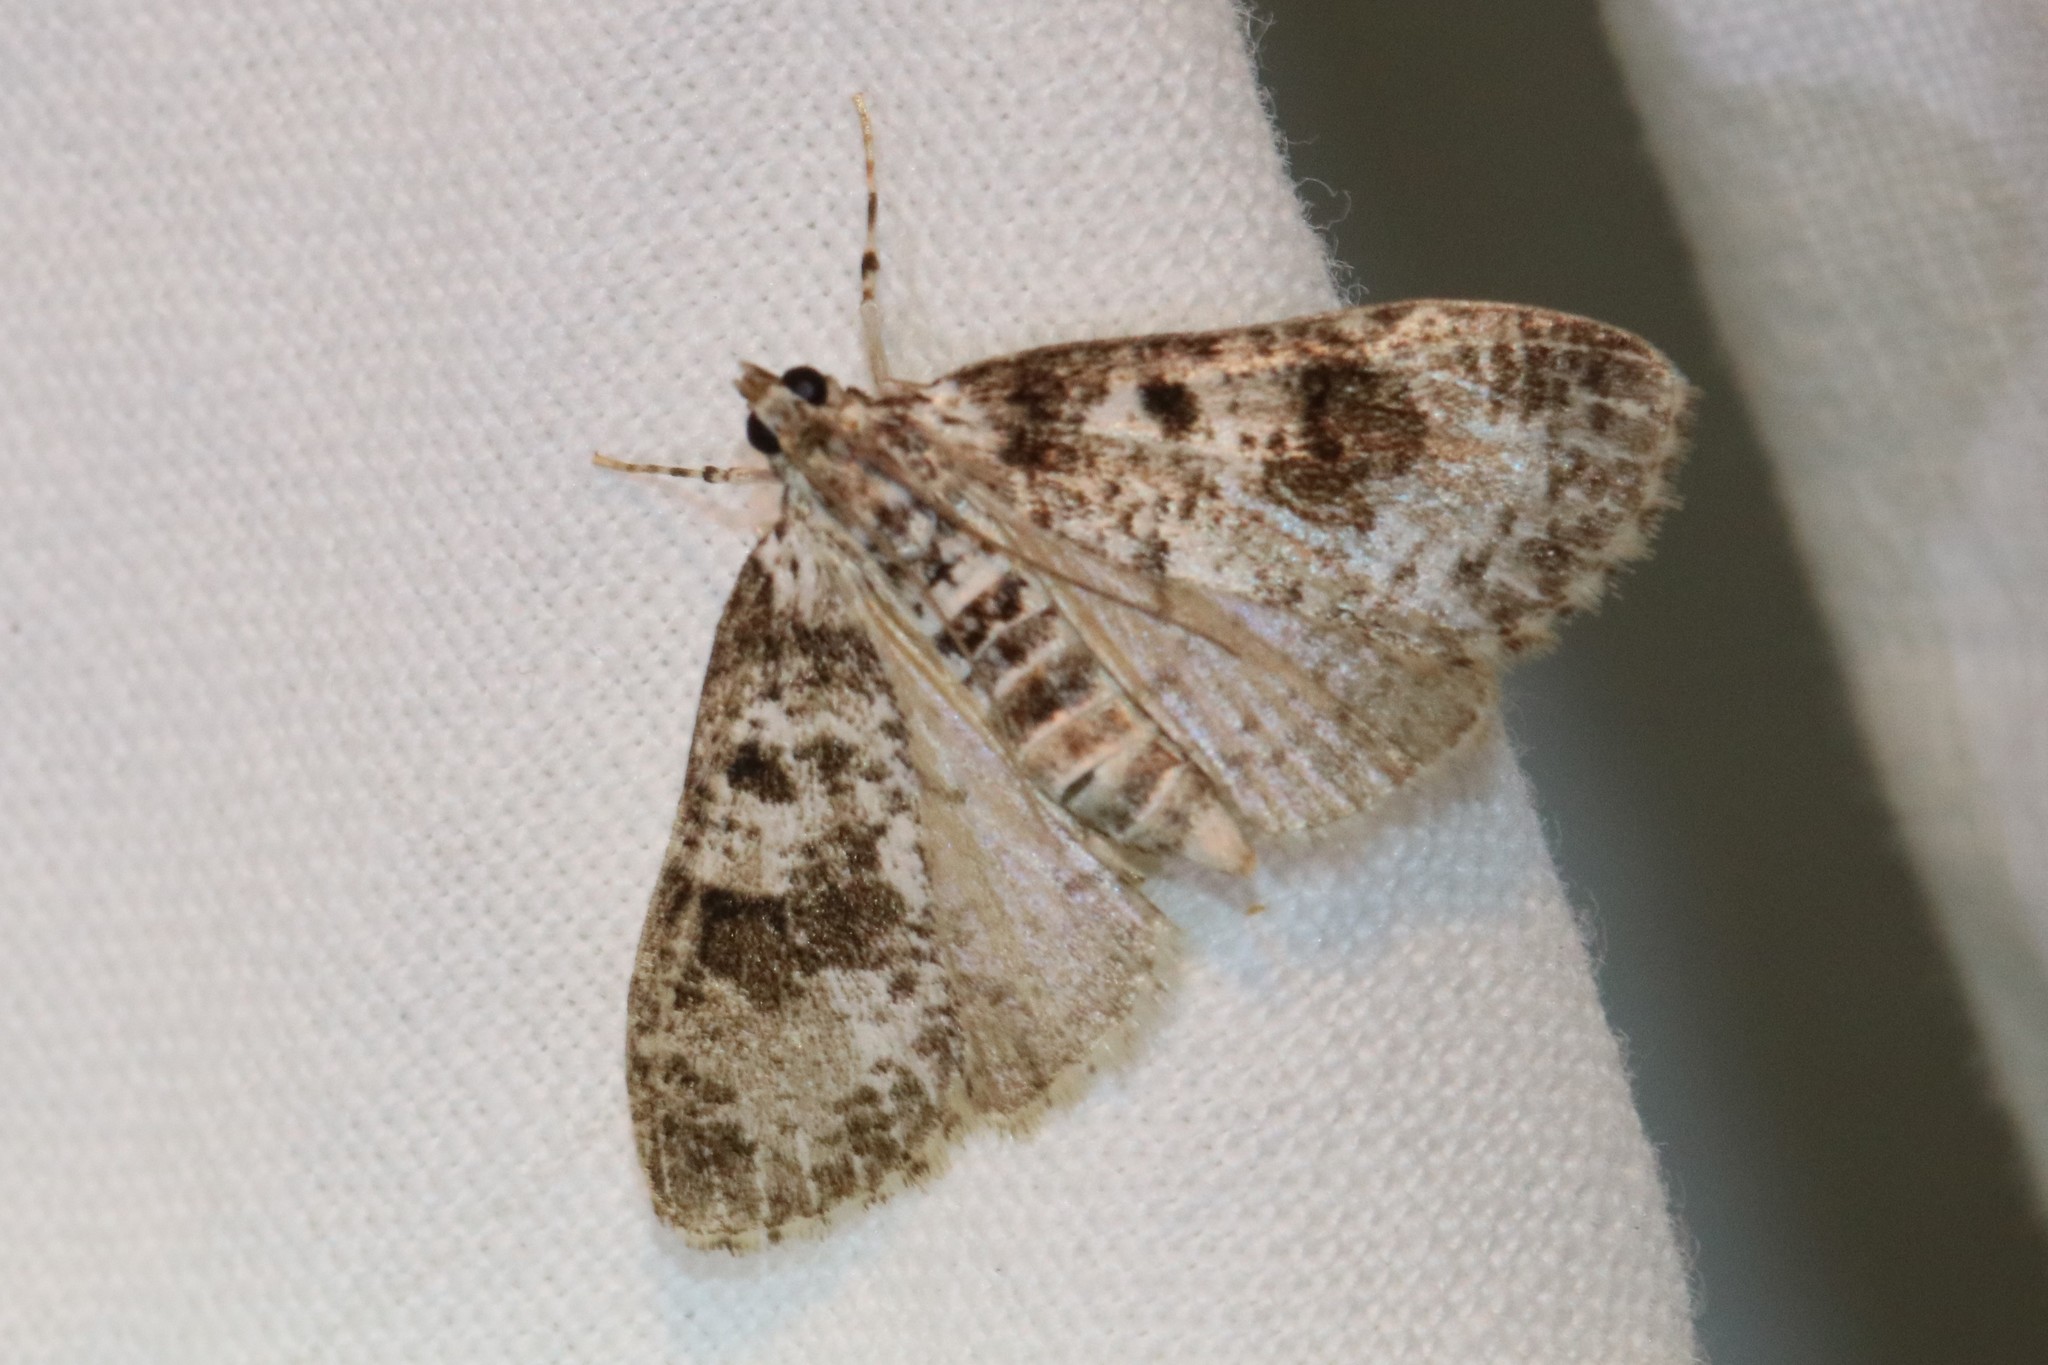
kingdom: Animalia
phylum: Arthropoda
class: Insecta
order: Lepidoptera
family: Crambidae
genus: Palpita
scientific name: Palpita magniferalis
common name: Splendid palpita moth
